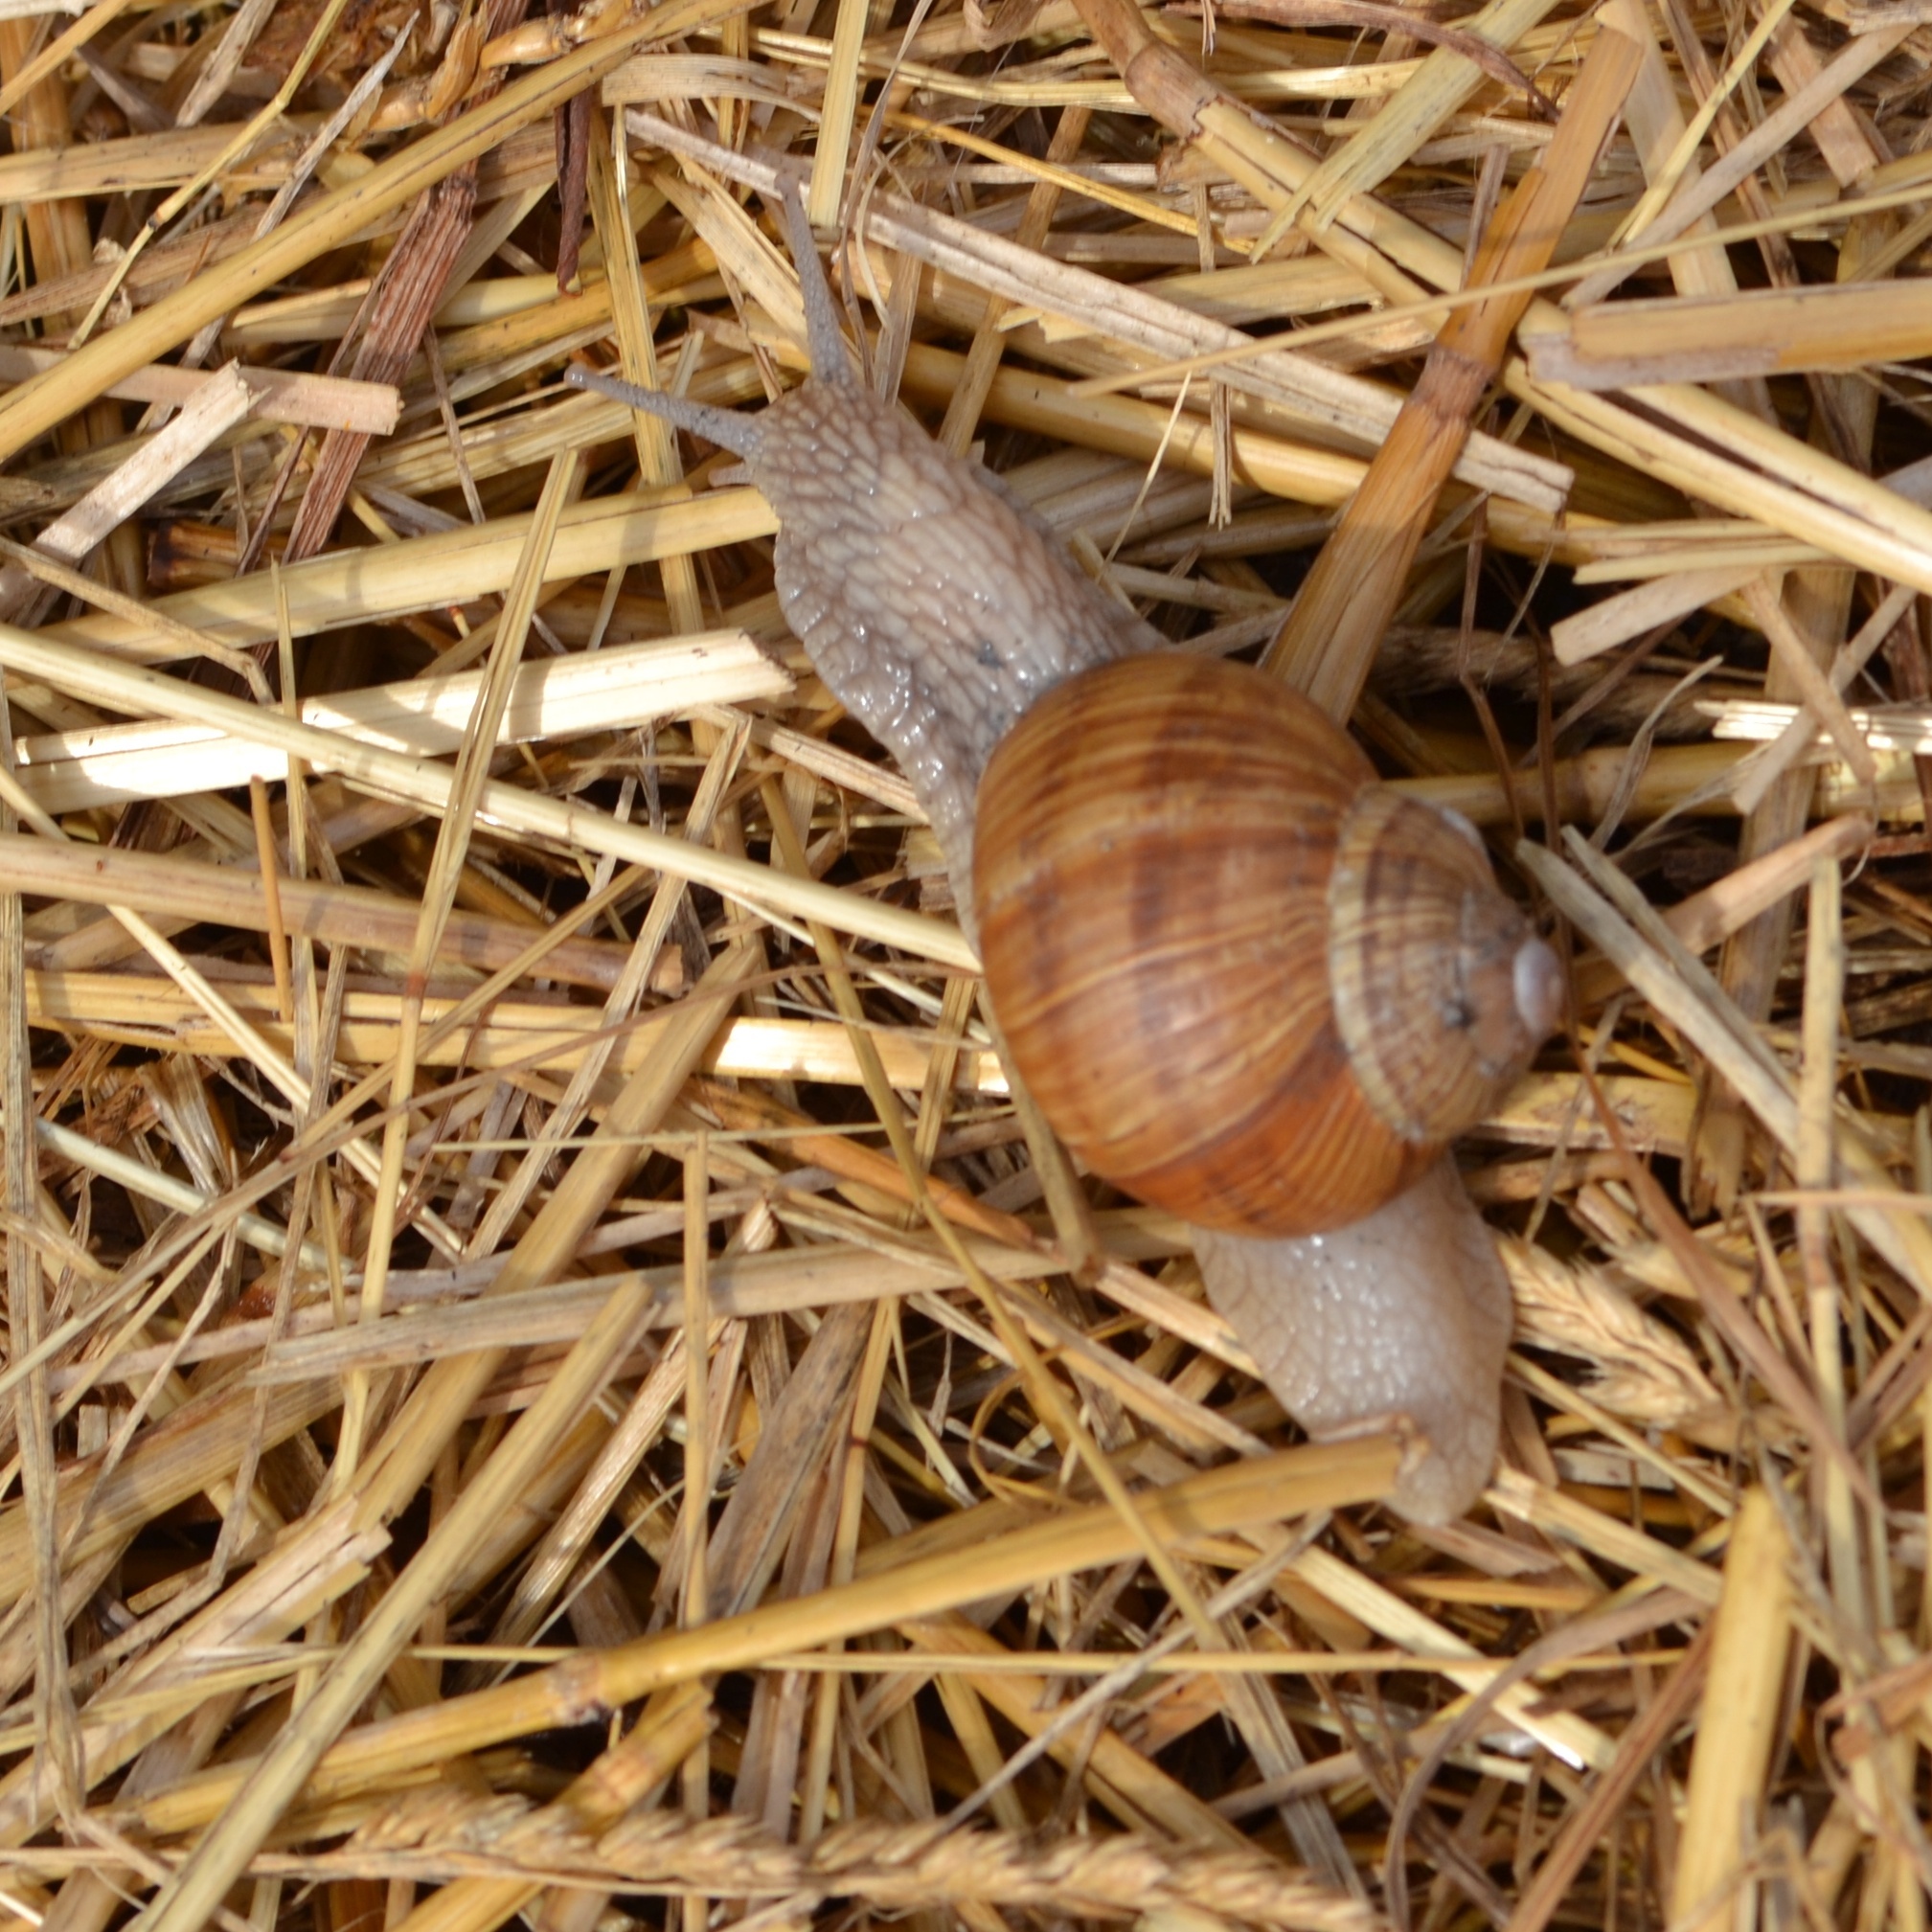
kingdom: Animalia
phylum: Mollusca
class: Gastropoda
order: Stylommatophora
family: Helicidae
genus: Helix
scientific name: Helix pomatia
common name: Roman snail
